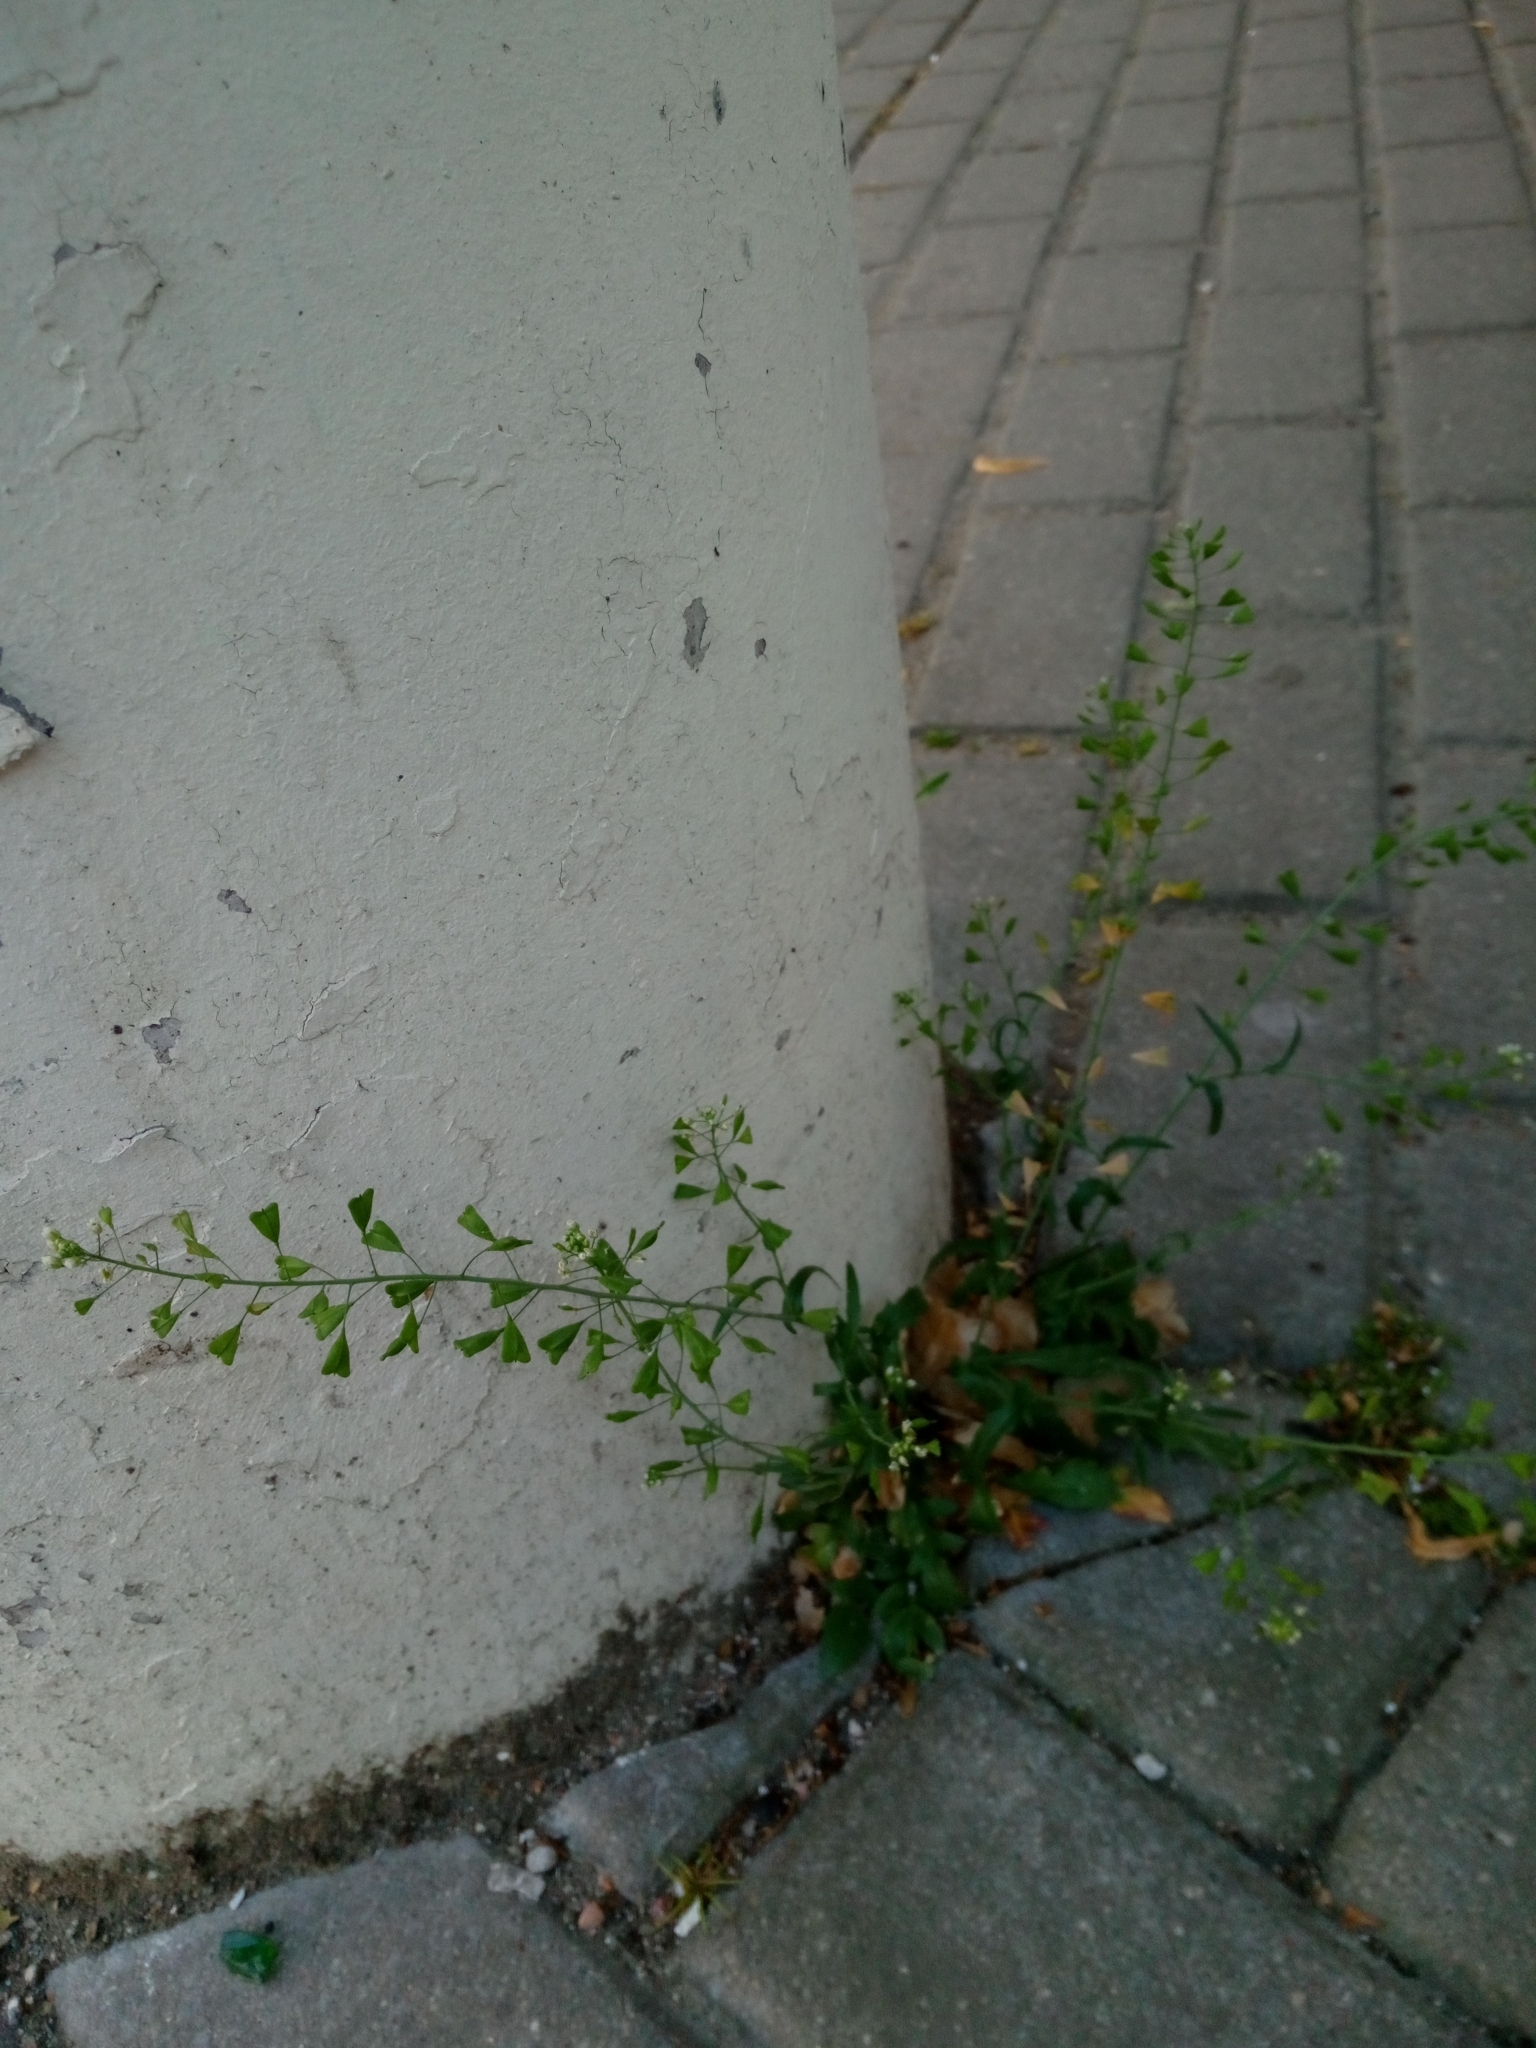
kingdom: Plantae
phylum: Tracheophyta
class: Magnoliopsida
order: Brassicales
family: Brassicaceae
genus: Capsella
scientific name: Capsella bursa-pastoris
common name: Shepherd's purse
